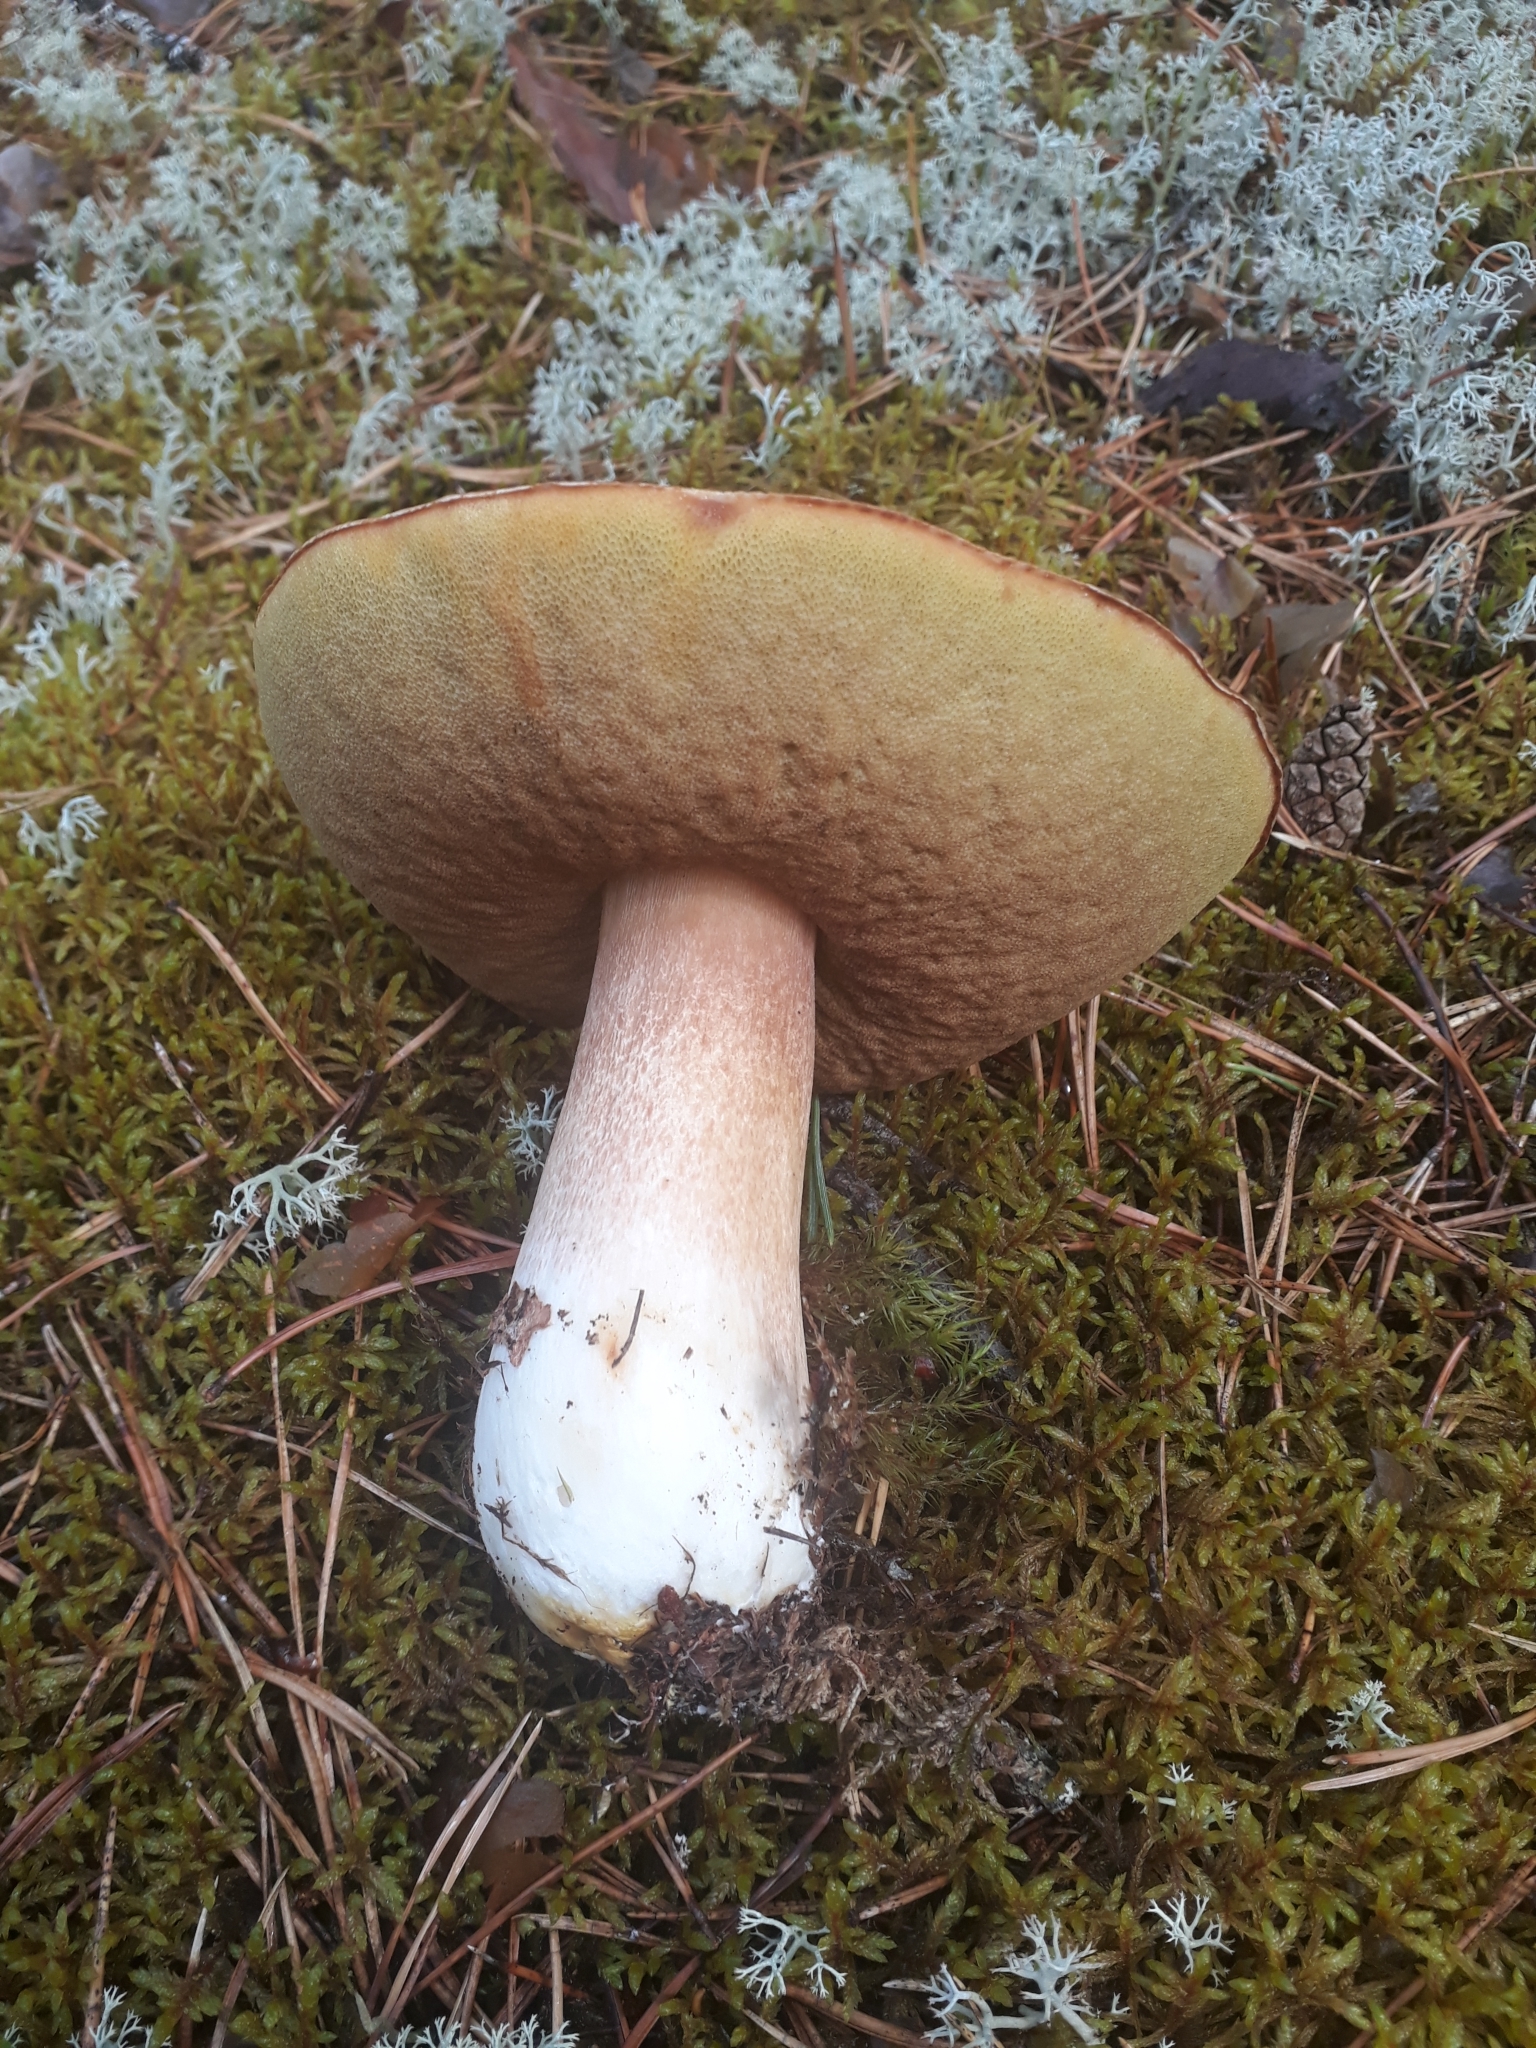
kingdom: Fungi
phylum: Basidiomycota
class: Agaricomycetes
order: Boletales
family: Boletaceae
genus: Boletus
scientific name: Boletus pinophilus
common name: Pine bolete
